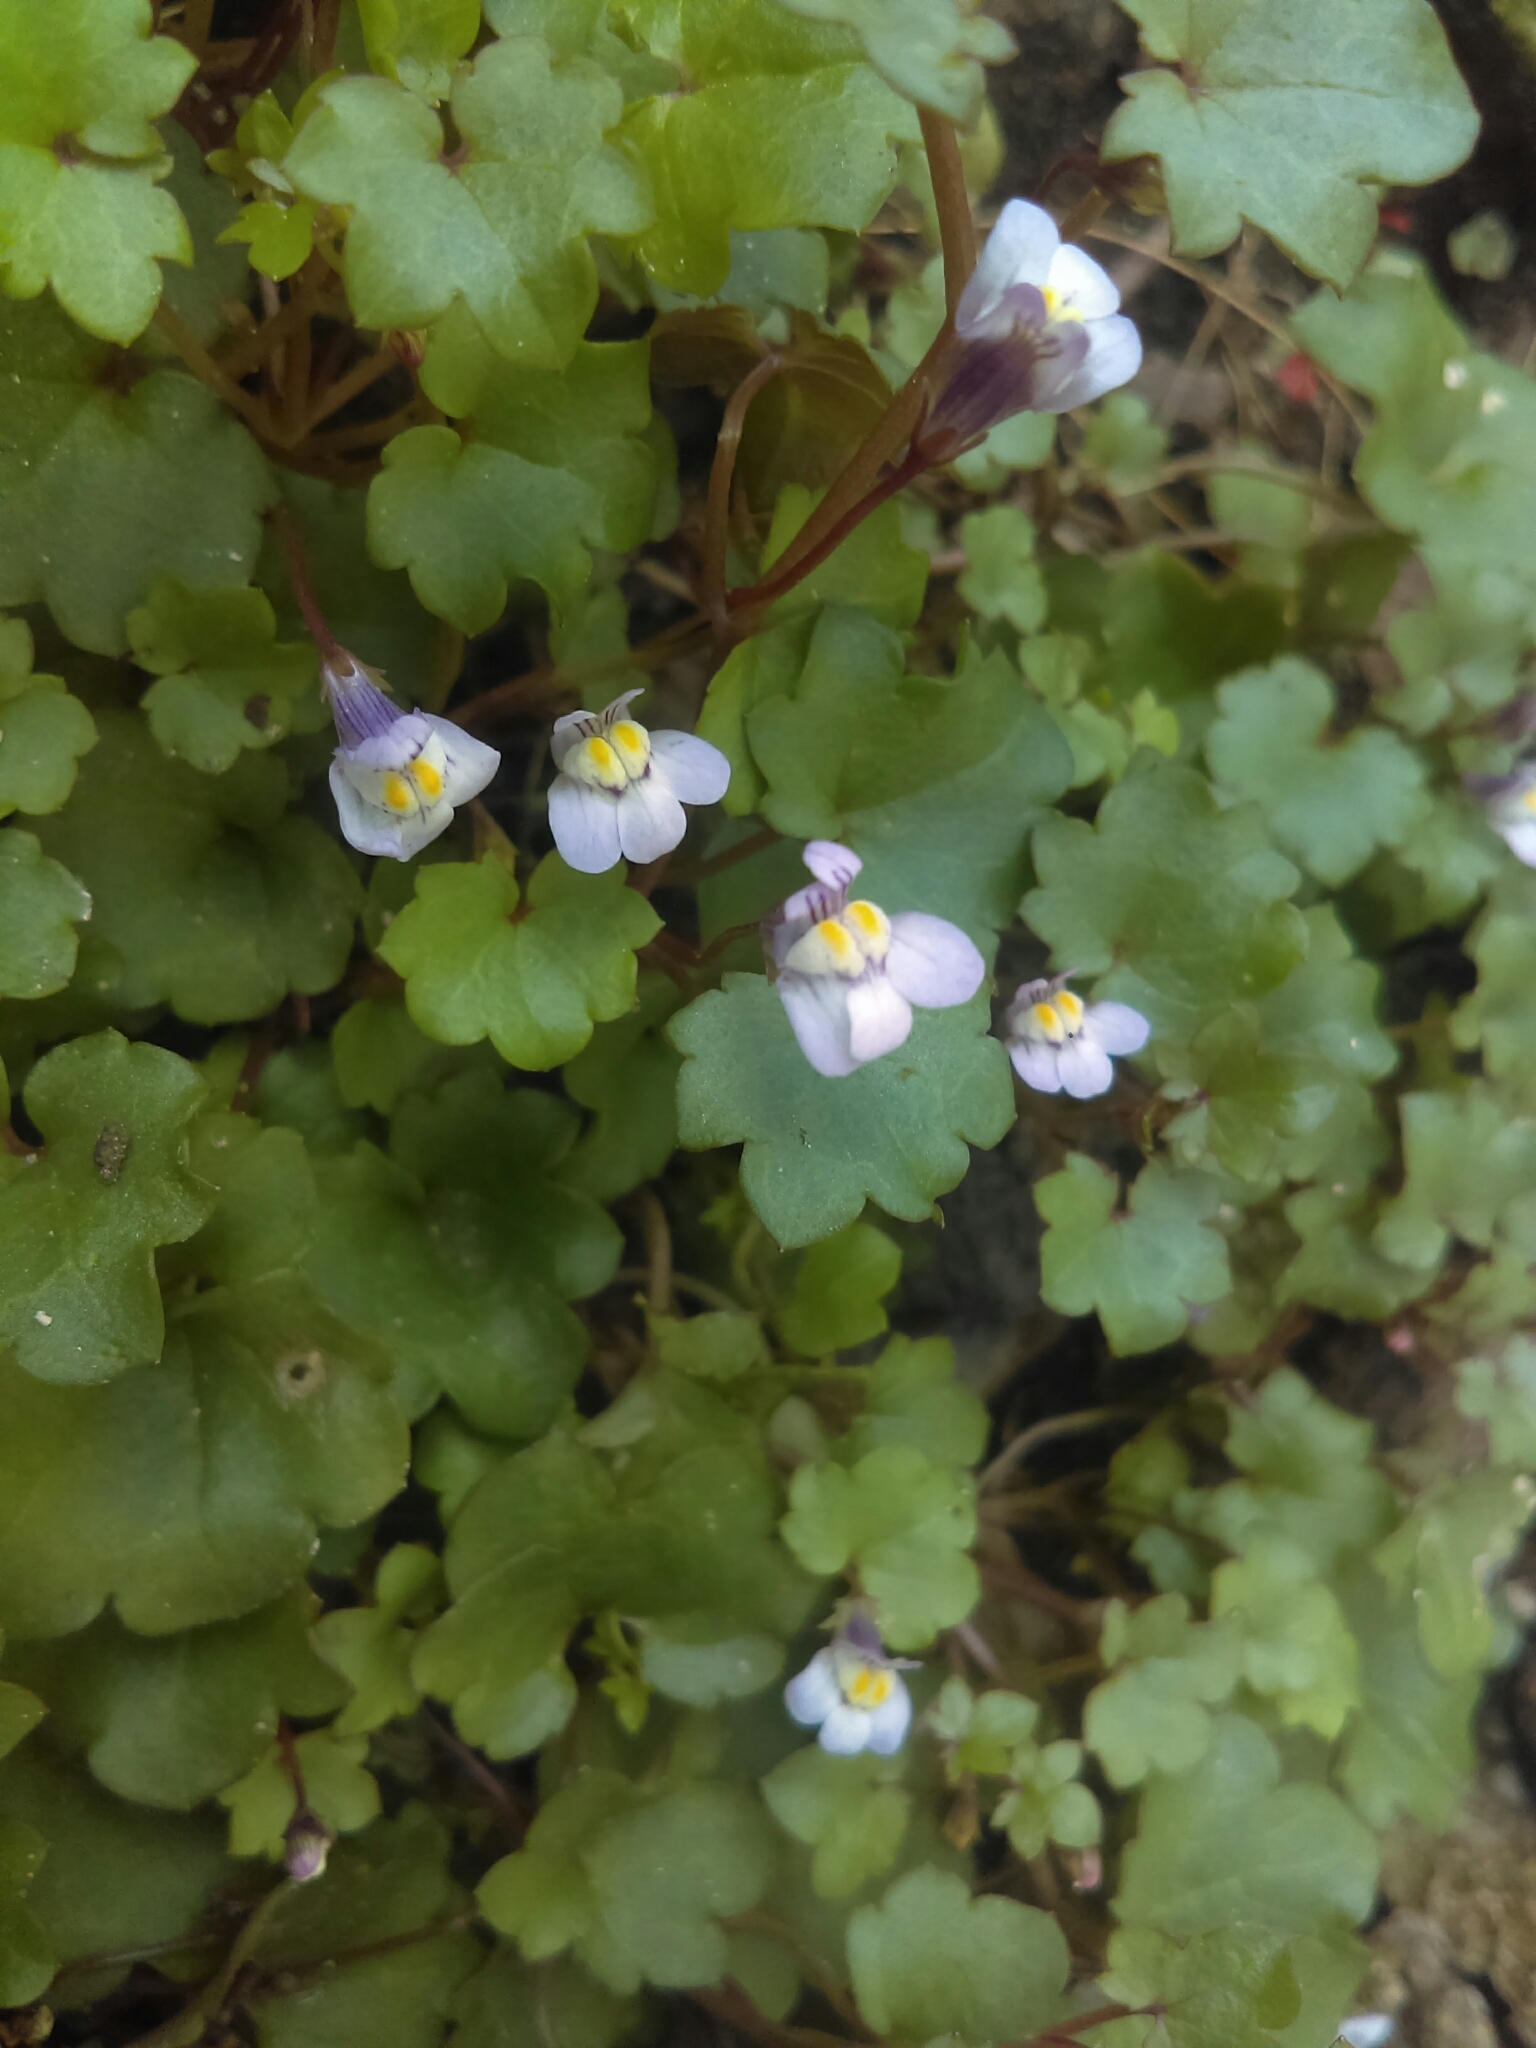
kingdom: Plantae
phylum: Tracheophyta
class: Magnoliopsida
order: Lamiales
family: Plantaginaceae
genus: Cymbalaria
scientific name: Cymbalaria muralis
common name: Ivy-leaved toadflax
